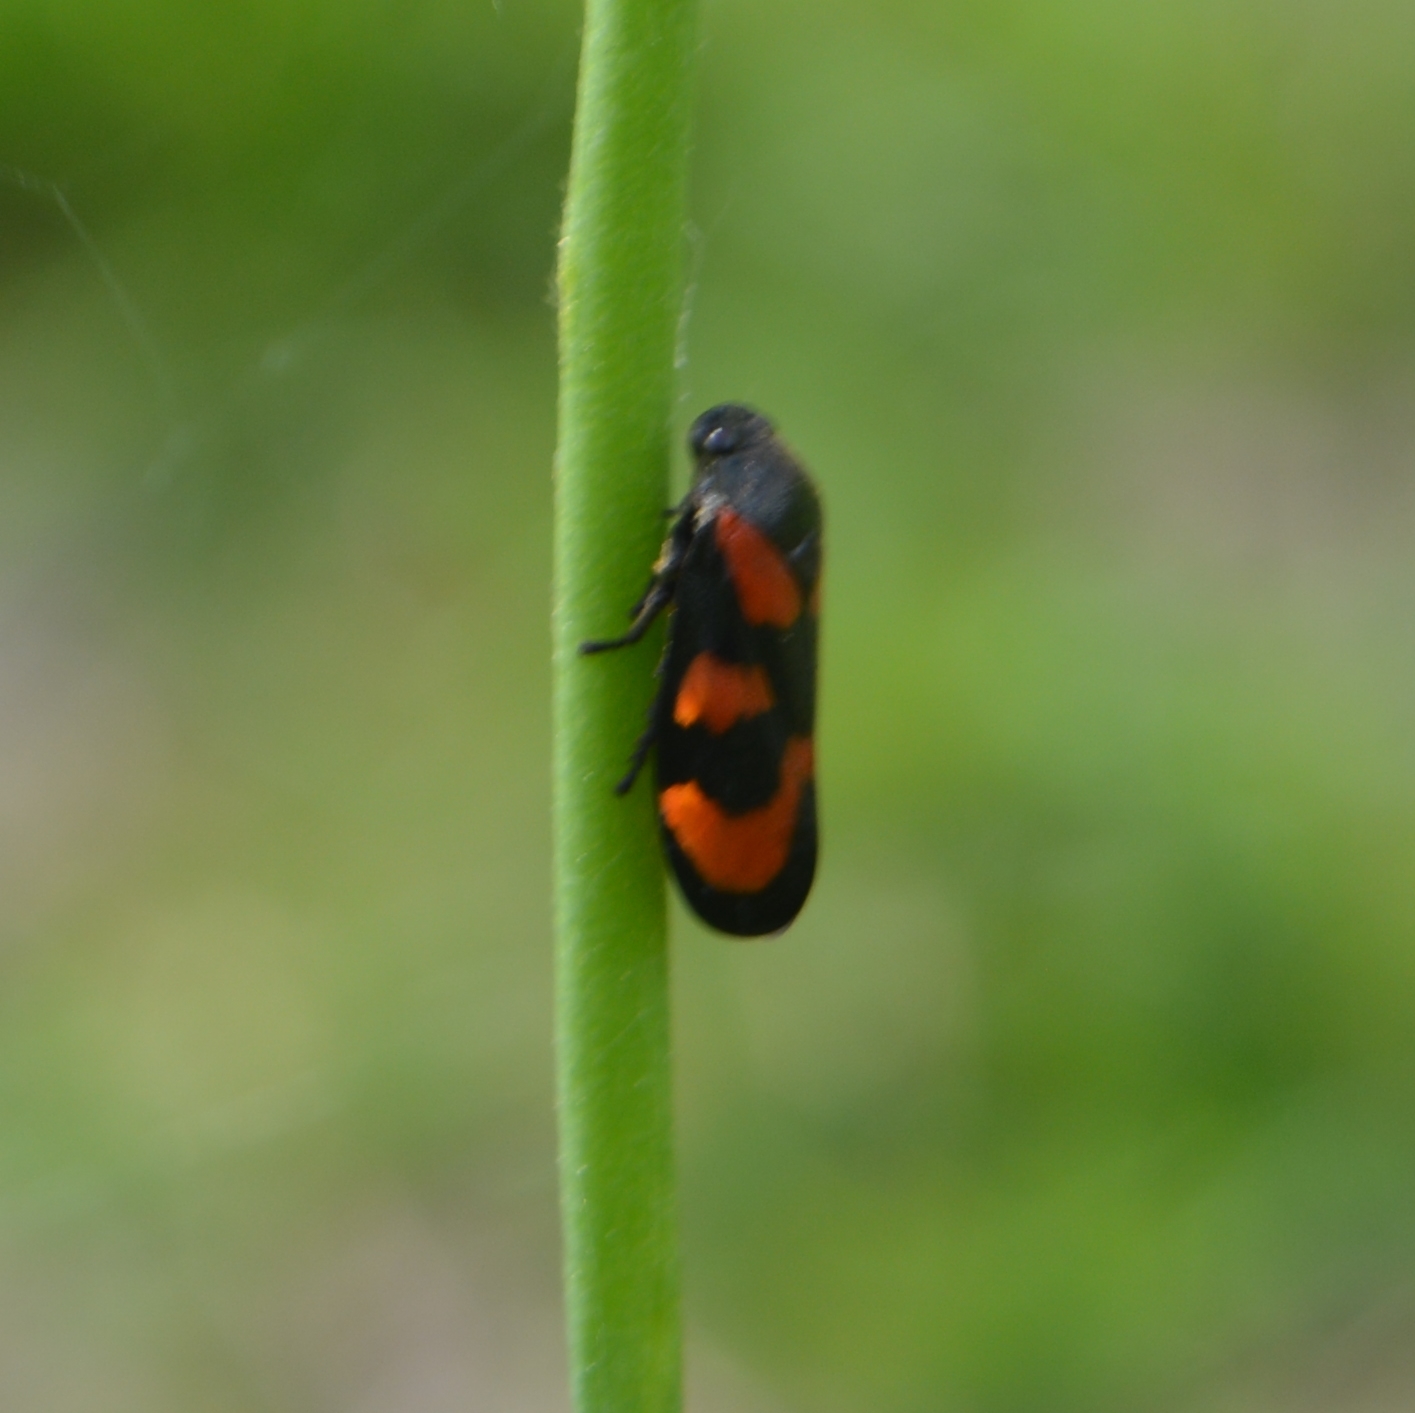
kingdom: Animalia
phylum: Arthropoda
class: Insecta
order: Hemiptera
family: Cercopidae
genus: Cercopis
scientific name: Cercopis vulnerata
